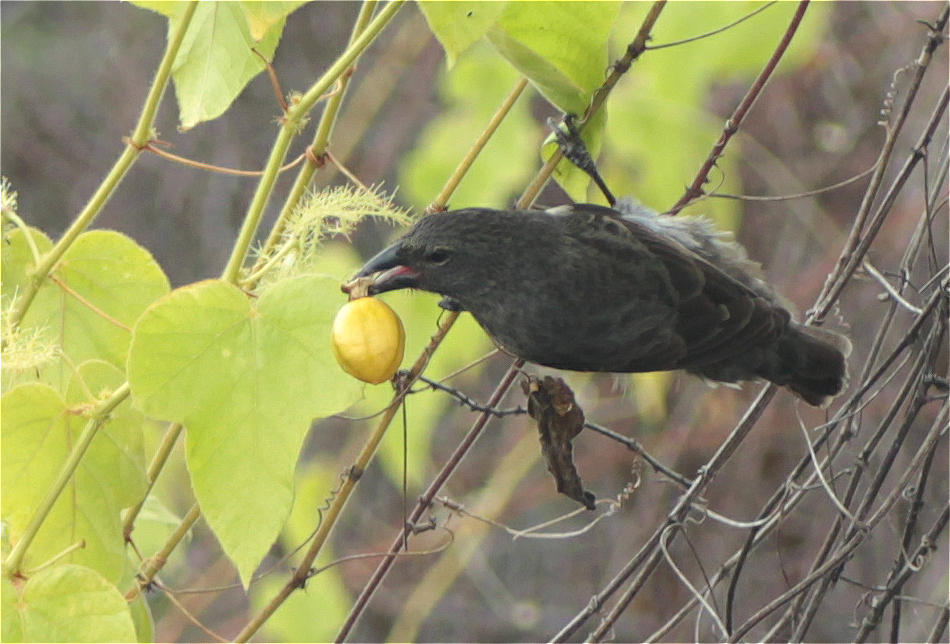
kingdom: Animalia
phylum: Chordata
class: Aves
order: Passeriformes
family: Thraupidae
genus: Geospiza
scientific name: Geospiza scandens
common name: Common cactus-finch
